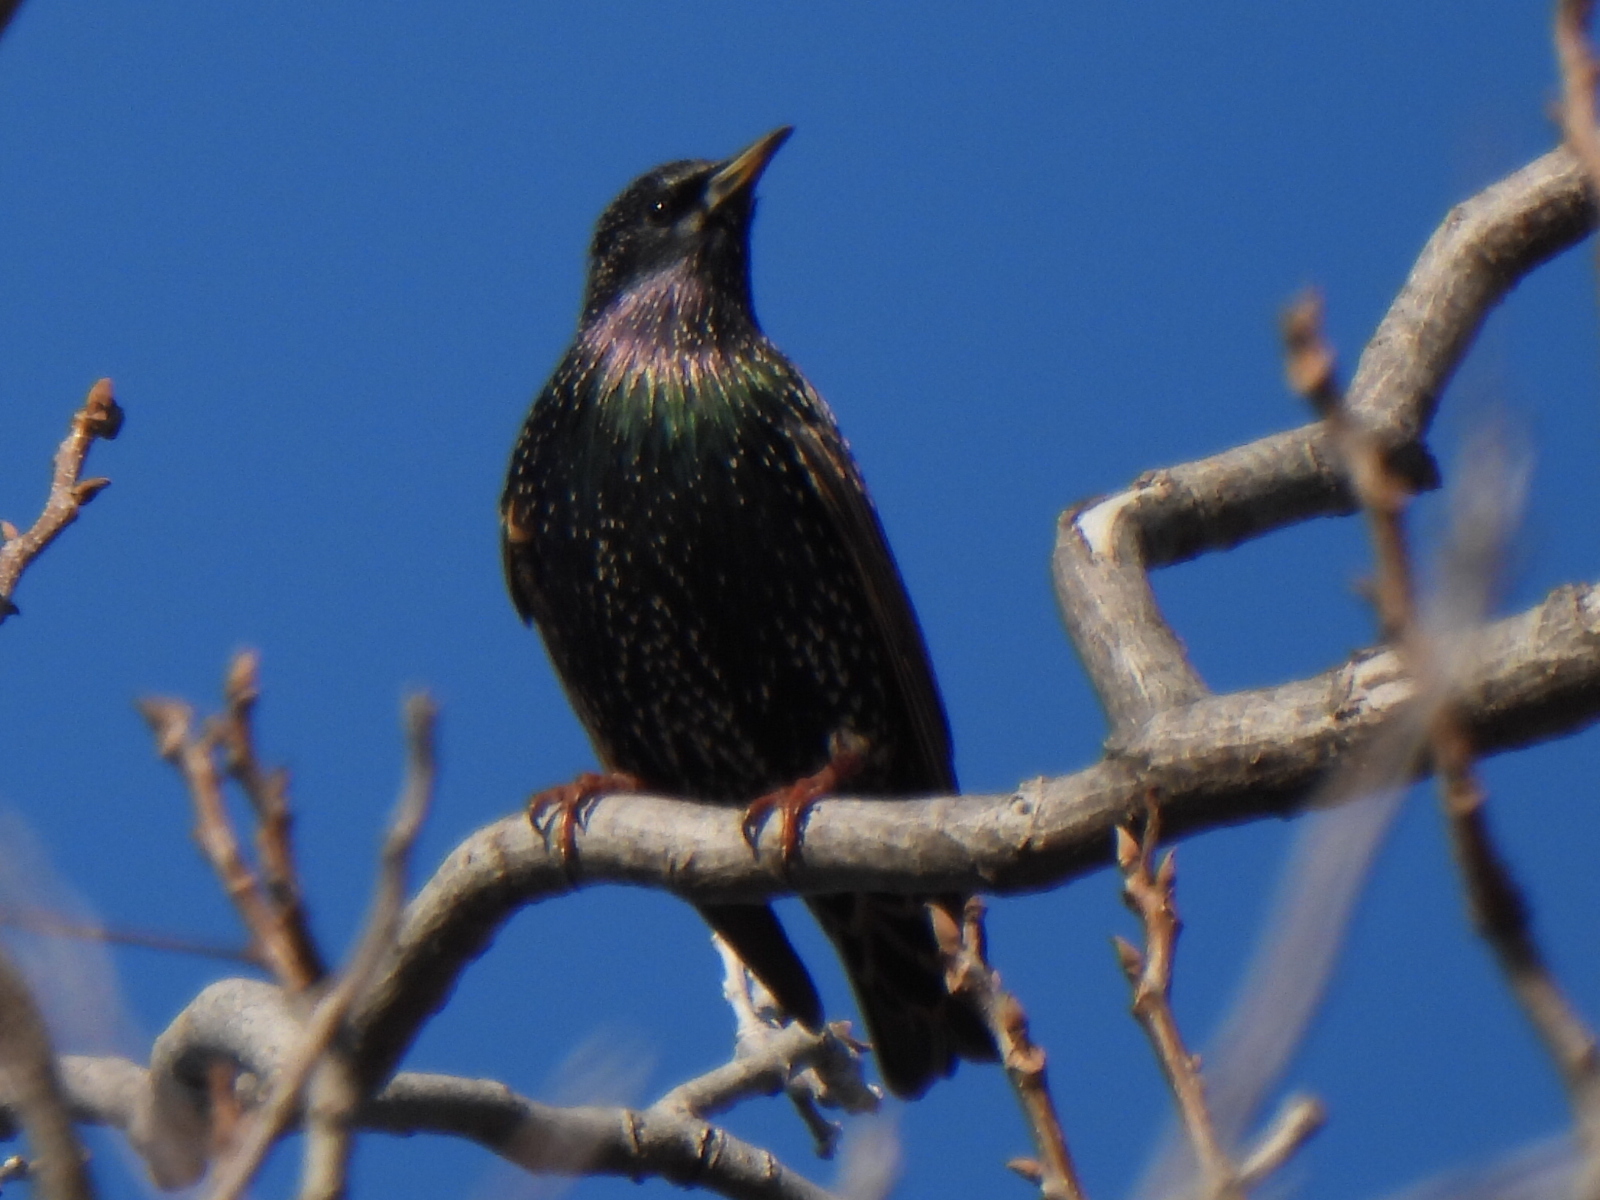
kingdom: Animalia
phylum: Chordata
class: Aves
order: Passeriformes
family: Sturnidae
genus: Sturnus
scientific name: Sturnus vulgaris
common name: Common starling
